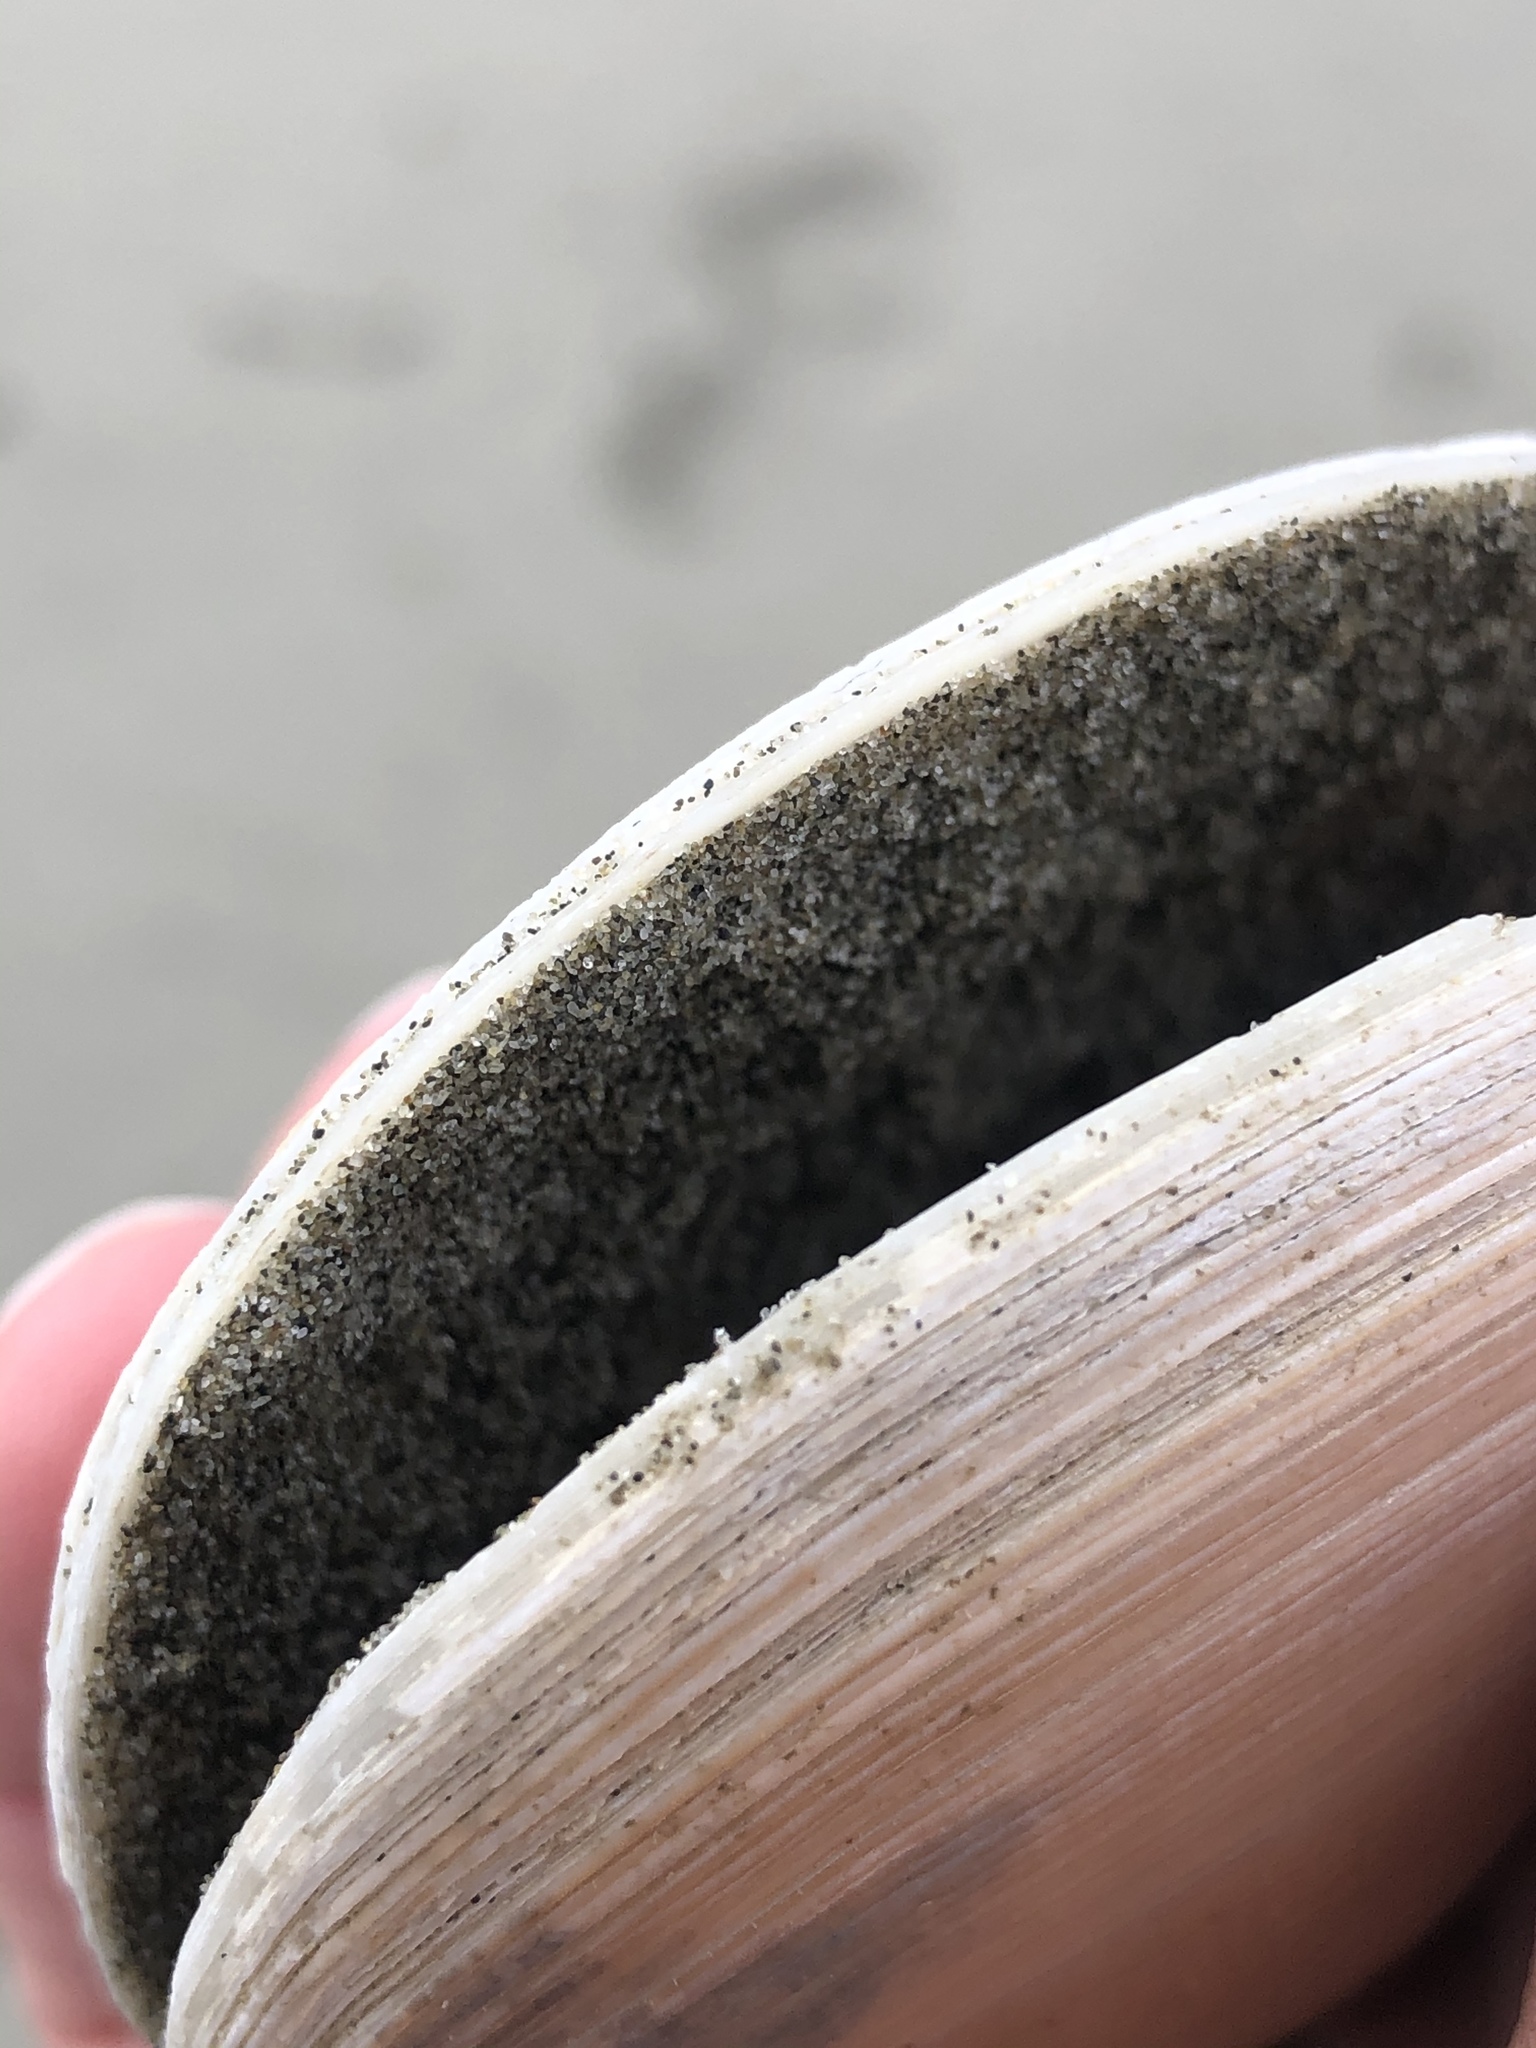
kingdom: Animalia
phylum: Mollusca
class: Bivalvia
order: Venerida
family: Veneridae
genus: Dosinia
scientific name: Dosinia anus
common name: Old-woman dosinia
